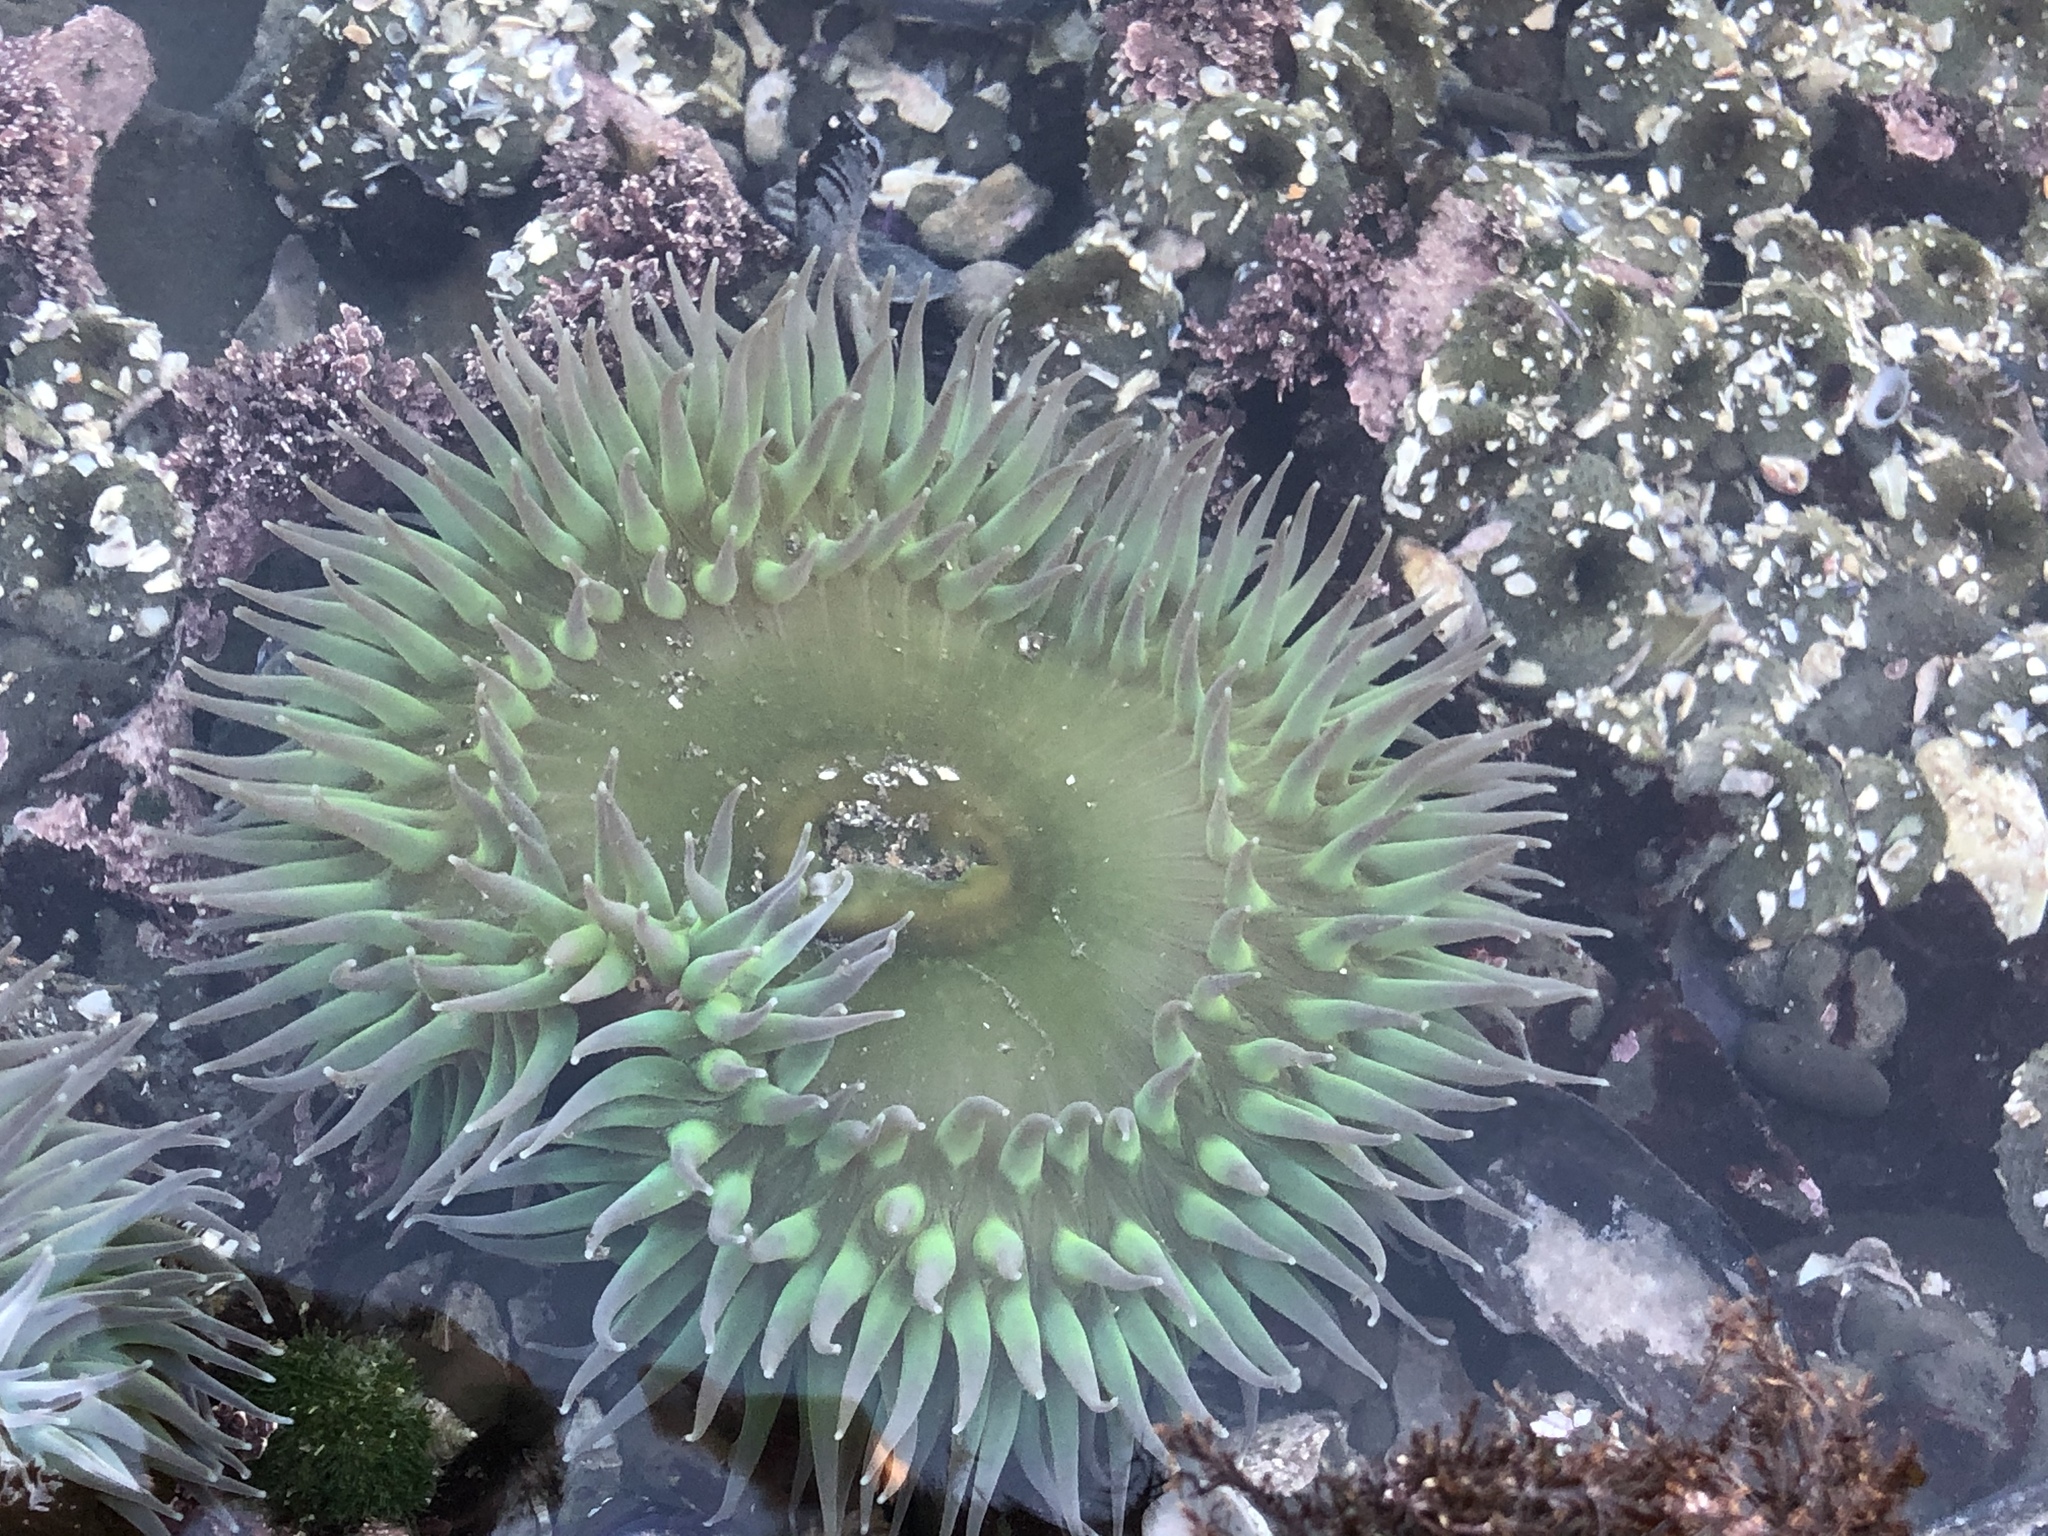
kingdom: Animalia
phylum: Cnidaria
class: Anthozoa
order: Actiniaria
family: Actiniidae
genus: Anthopleura
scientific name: Anthopleura xanthogrammica
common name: Giant green anemone
